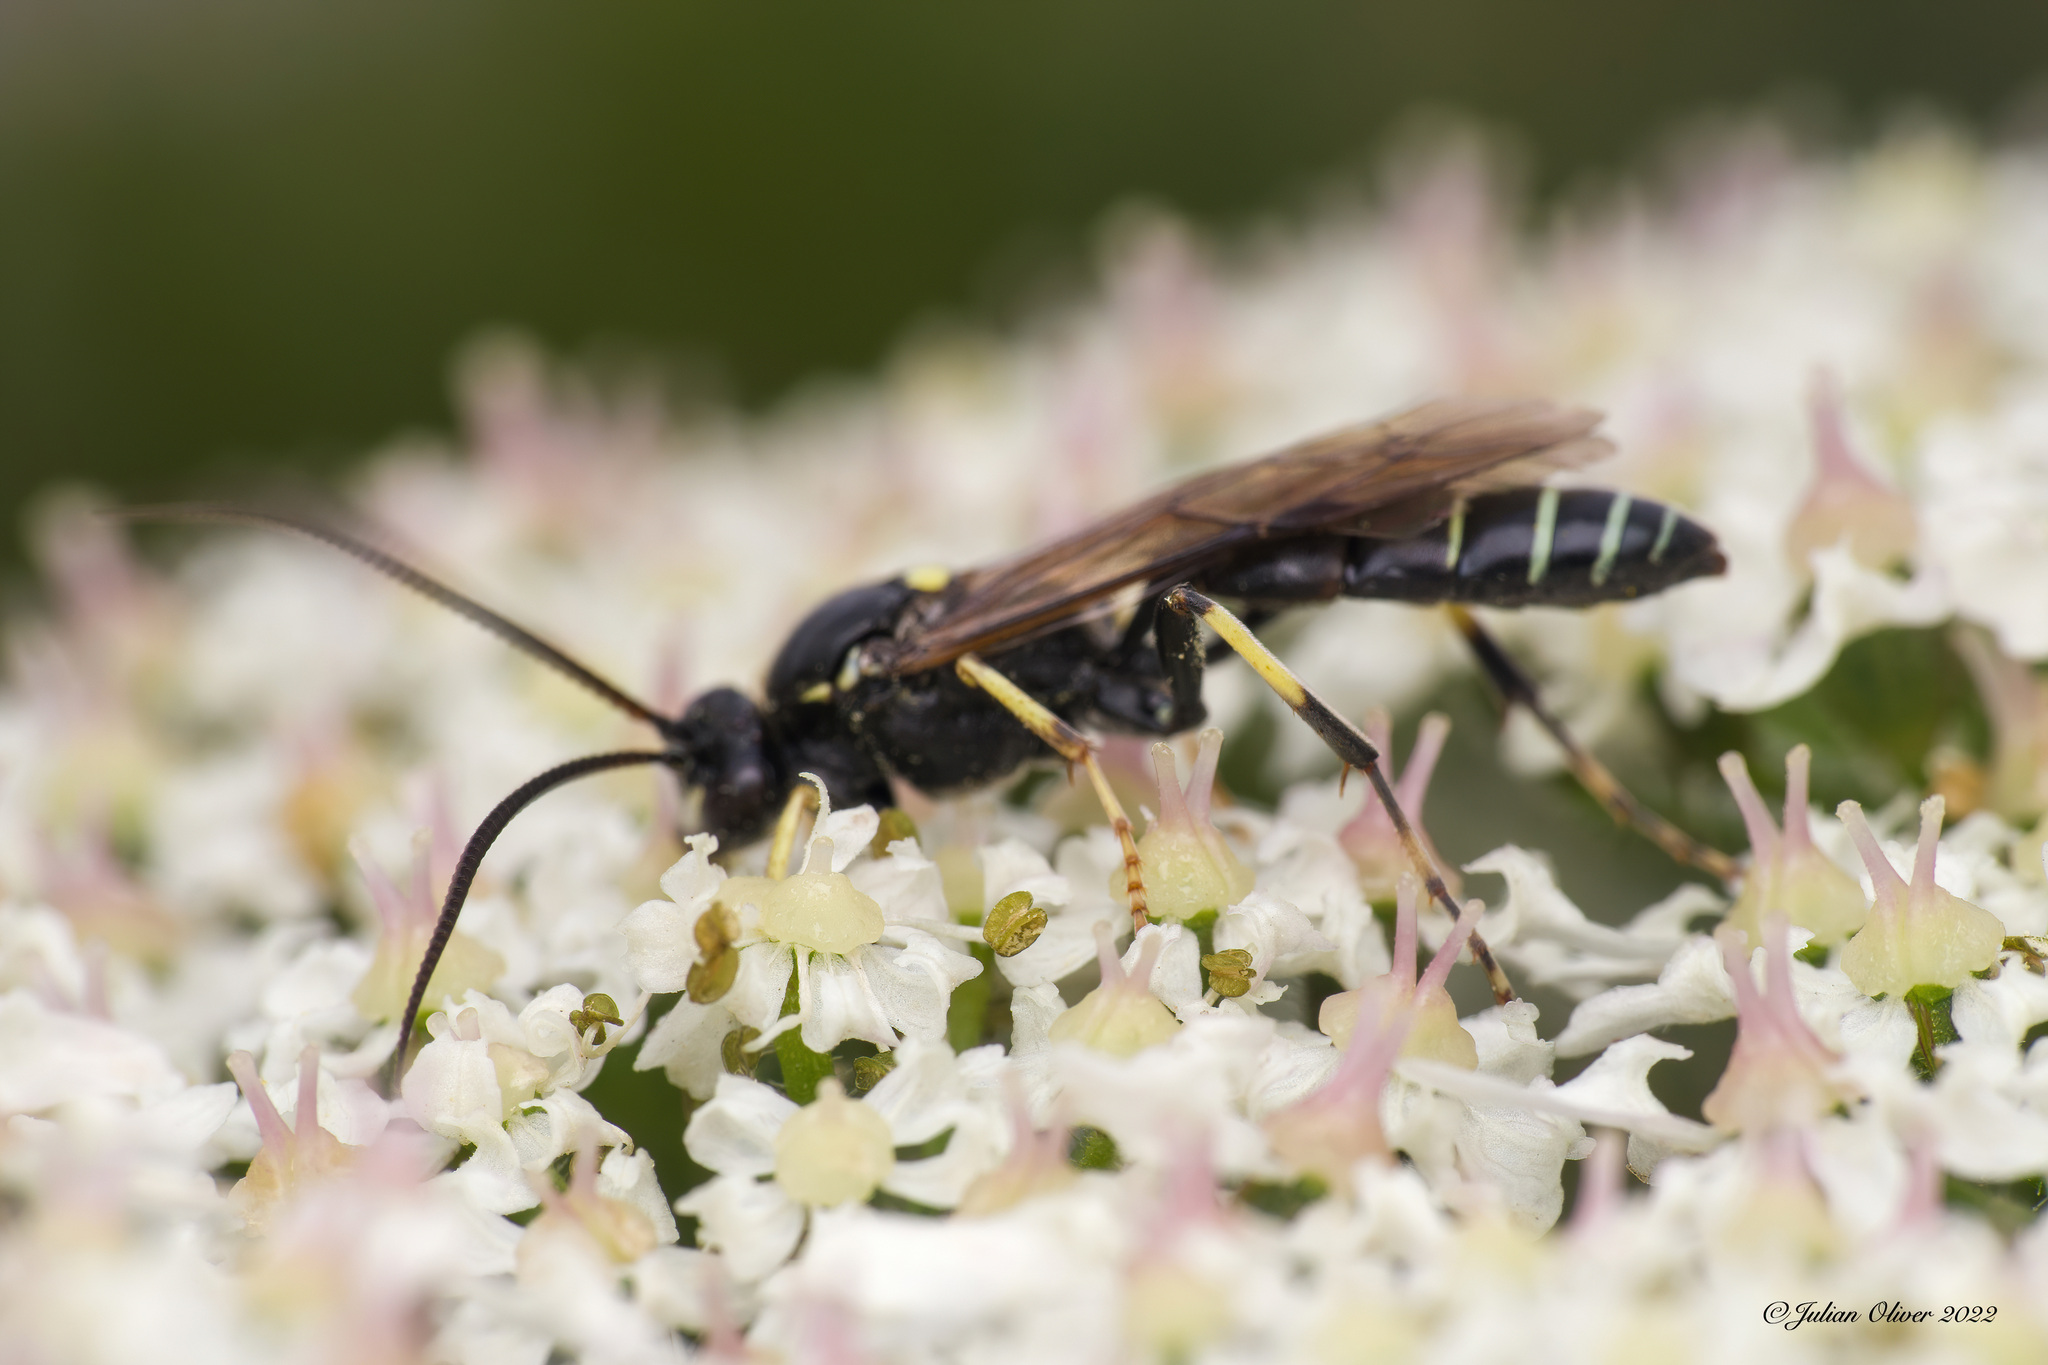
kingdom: Animalia
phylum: Arthropoda
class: Insecta
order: Hymenoptera
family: Ichneumonidae
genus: Ctenichneumon
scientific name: Ctenichneumon panzeri
